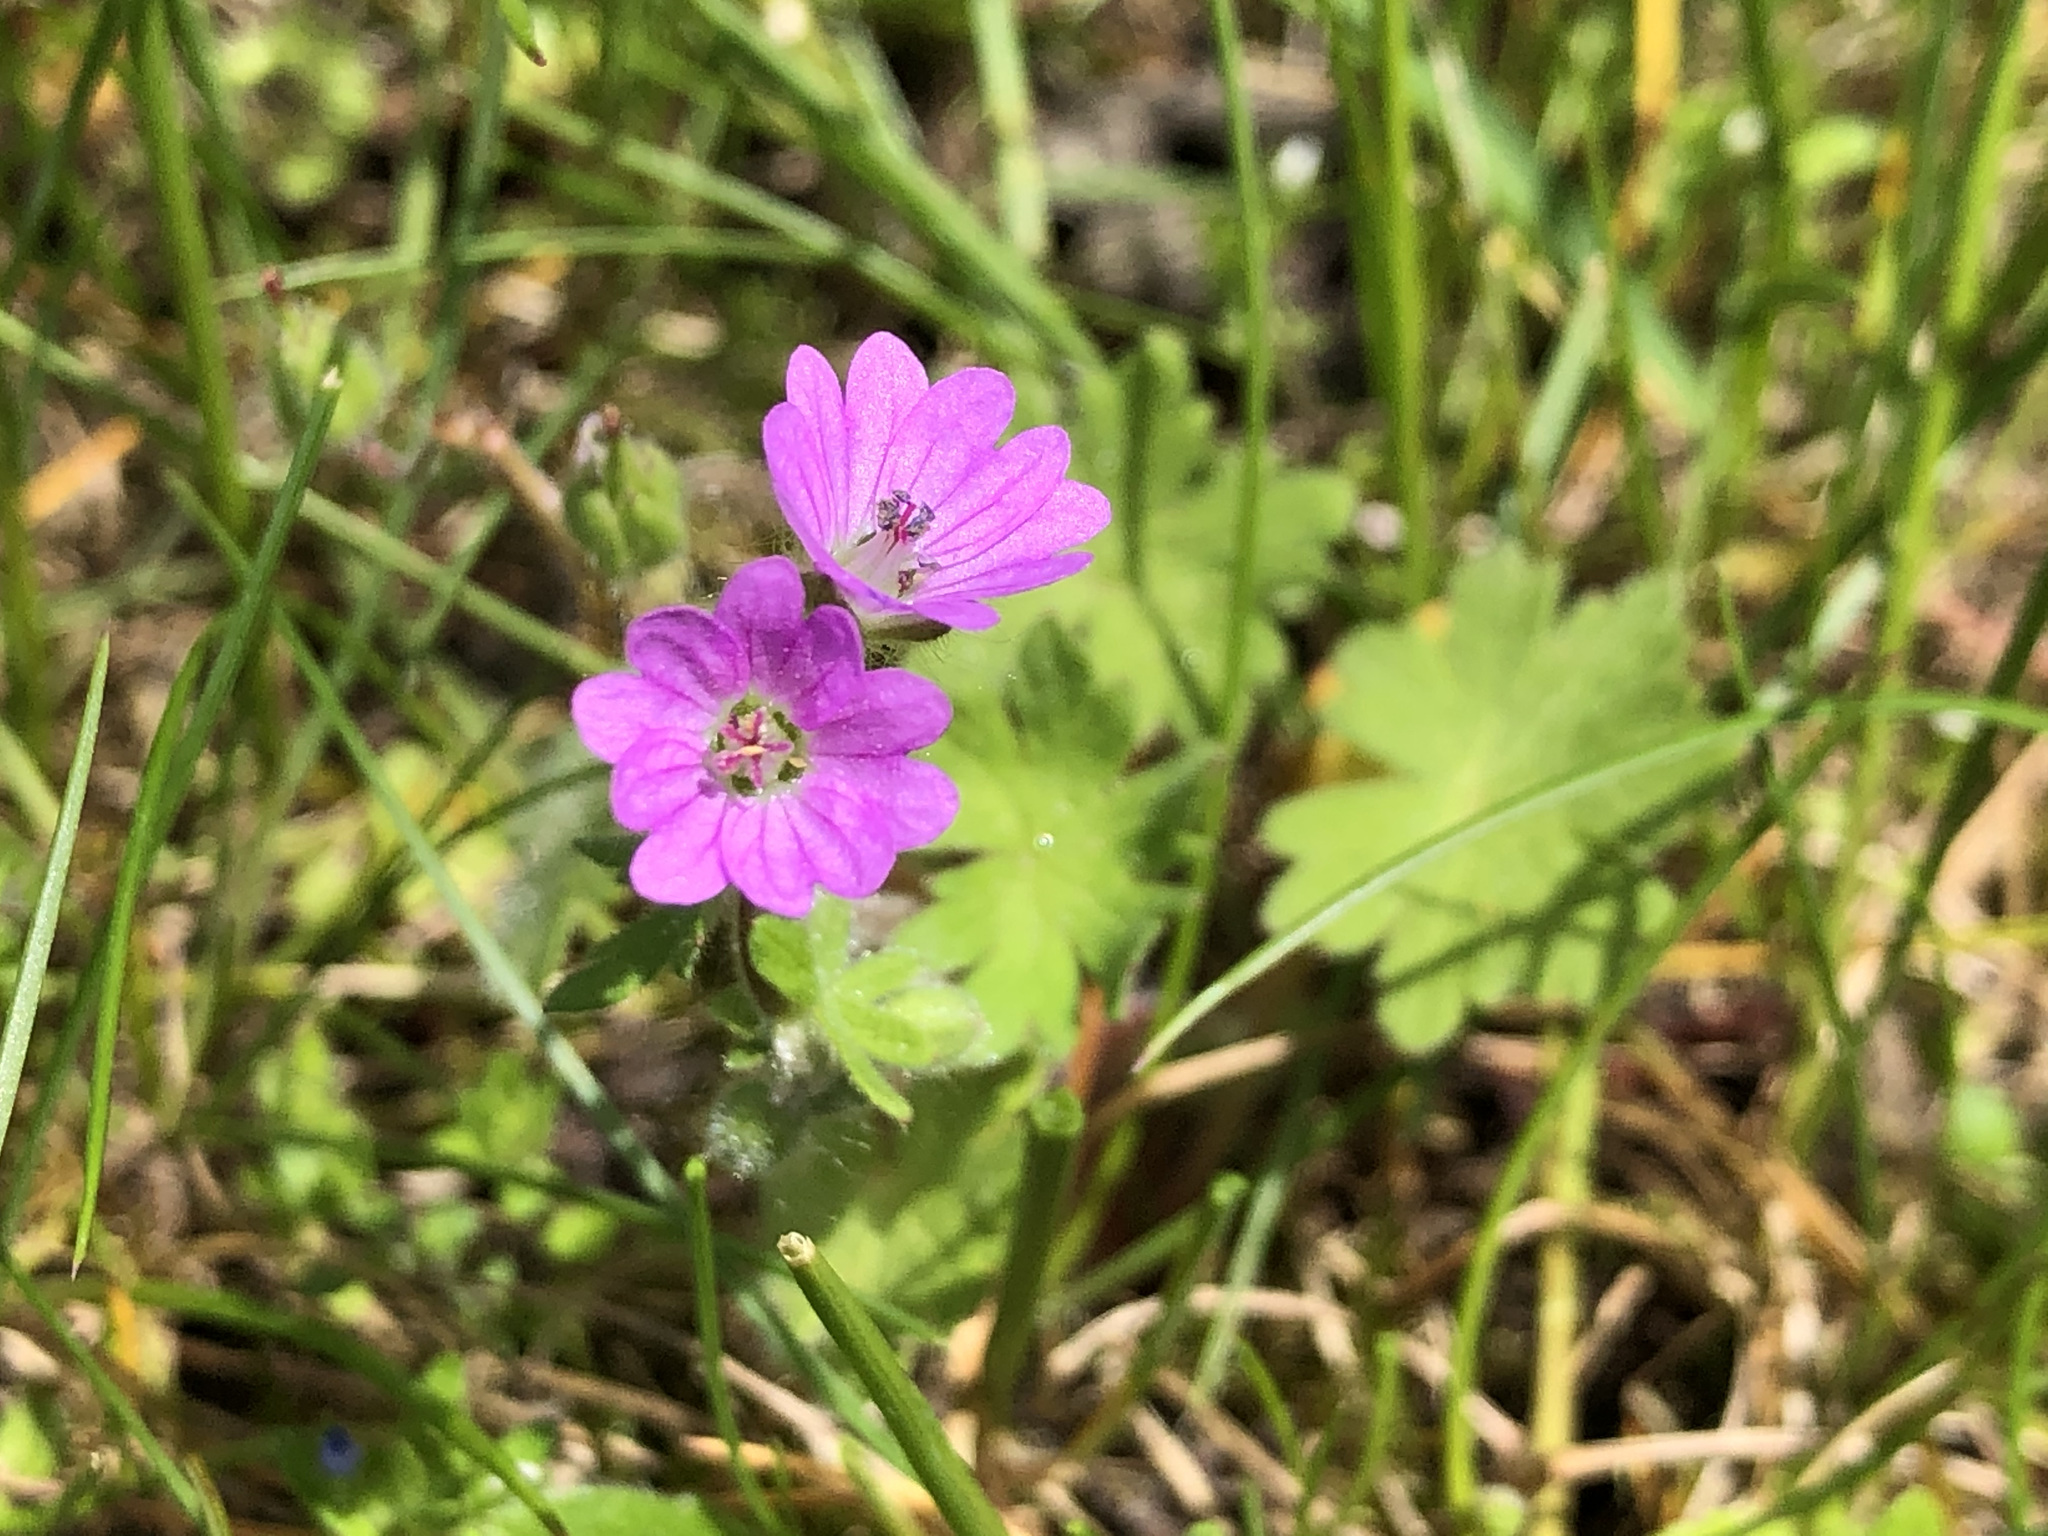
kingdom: Plantae
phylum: Tracheophyta
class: Magnoliopsida
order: Geraniales
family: Geraniaceae
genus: Geranium
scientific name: Geranium molle
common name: Dove's-foot crane's-bill
